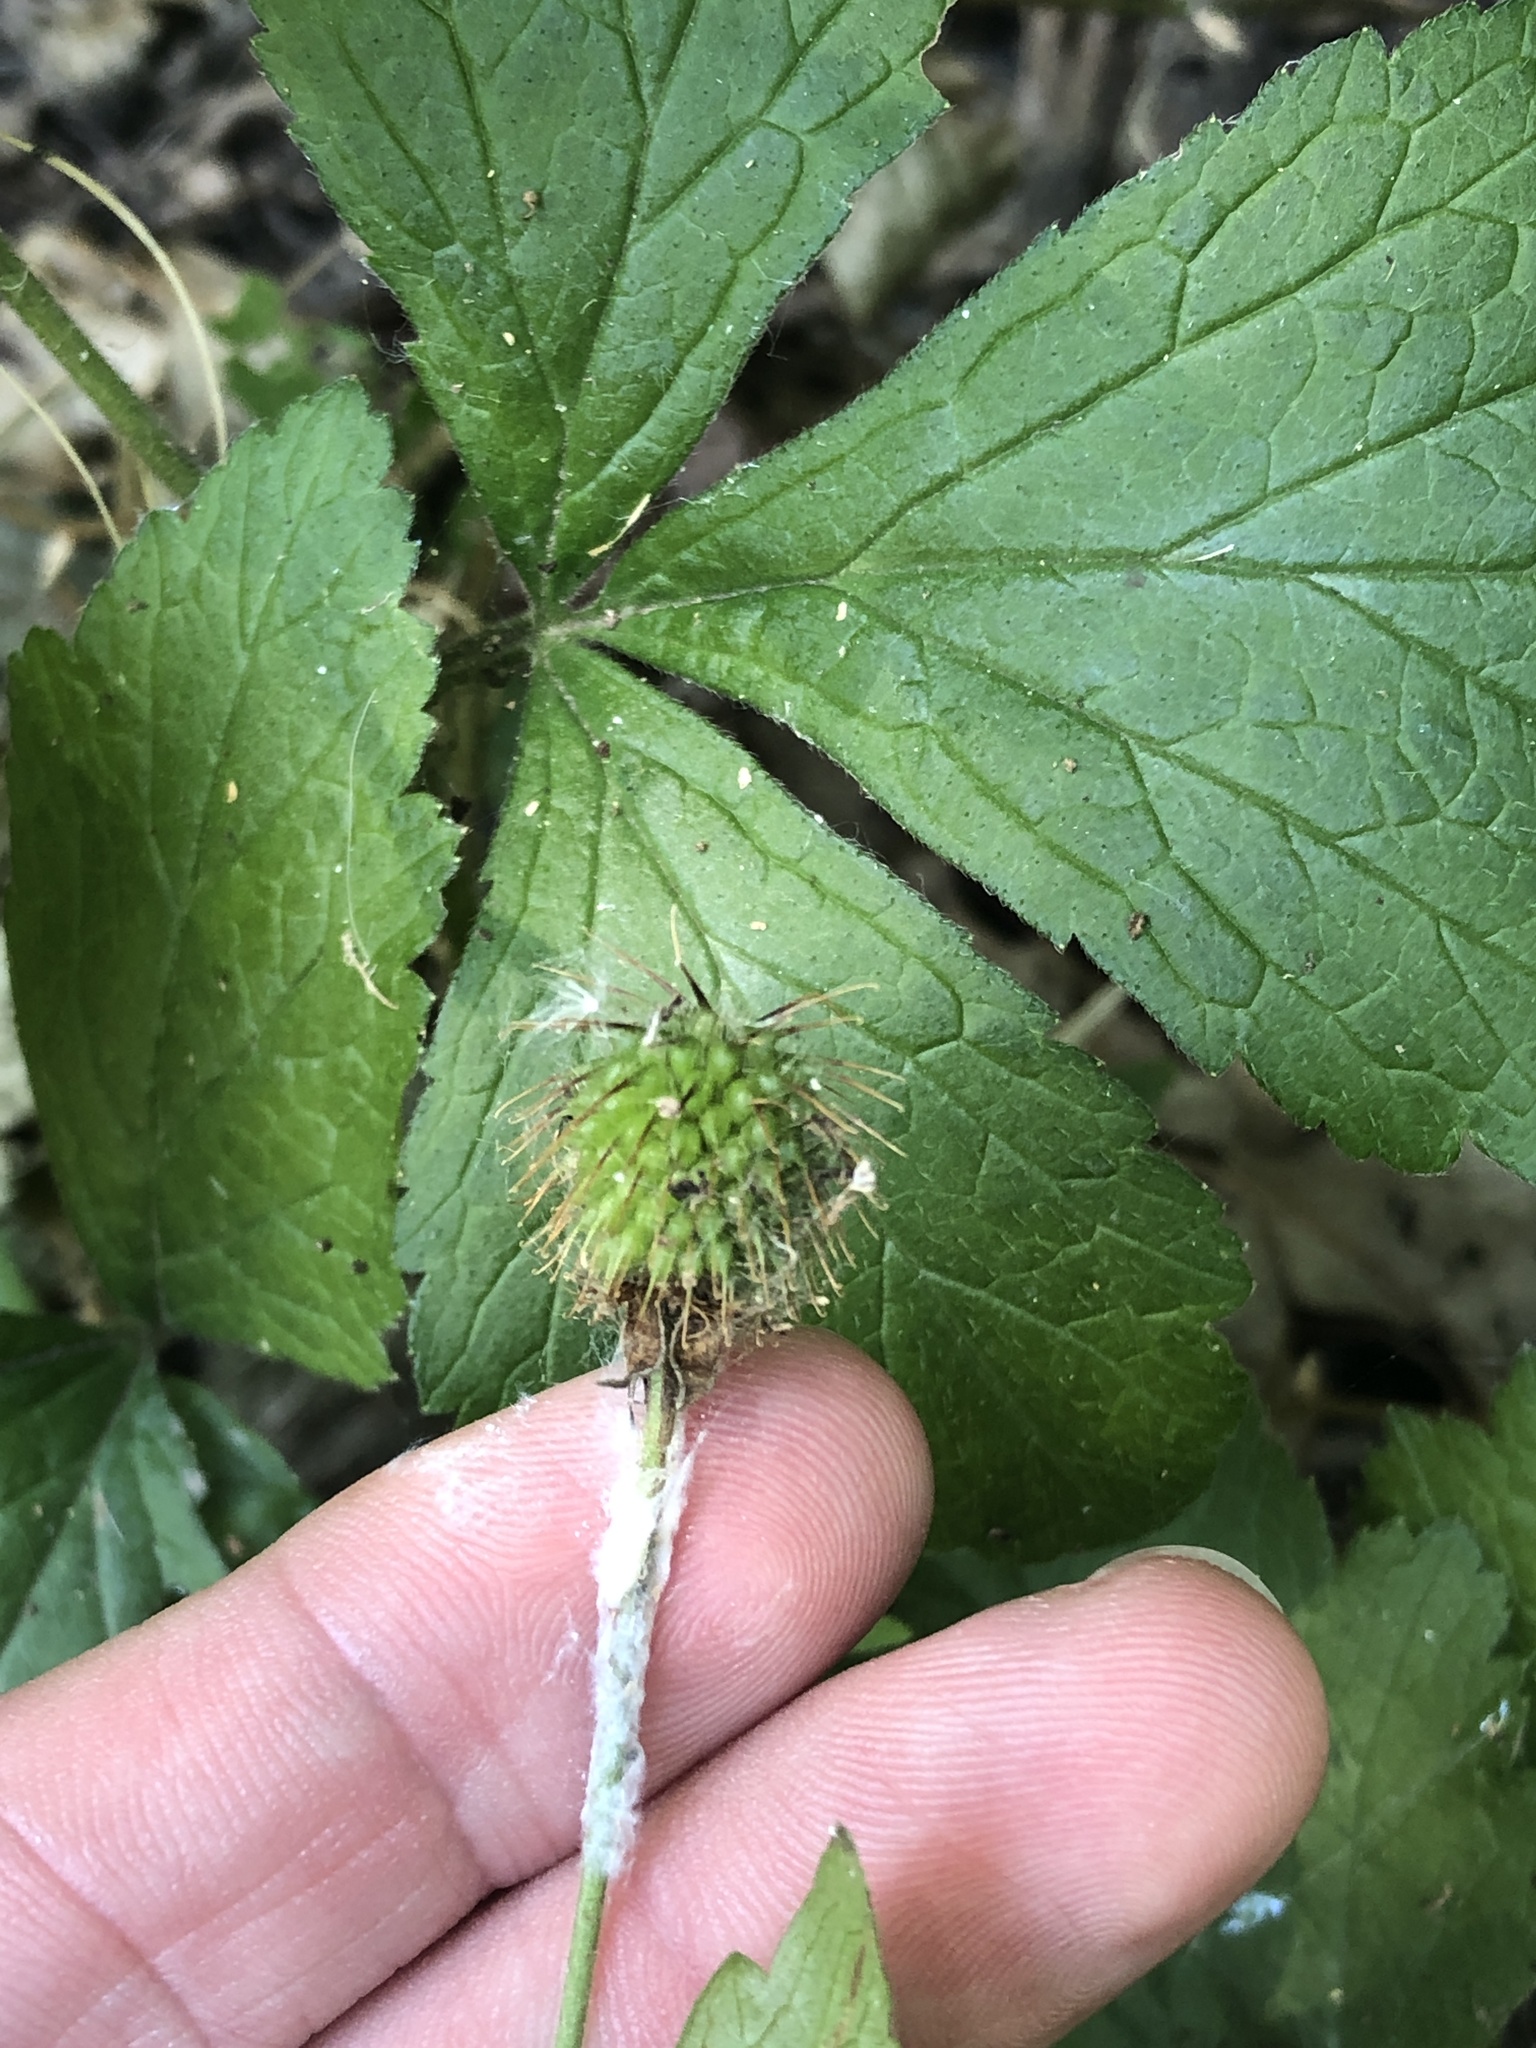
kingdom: Plantae
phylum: Tracheophyta
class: Magnoliopsida
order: Rosales
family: Rosaceae
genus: Geum
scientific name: Geum canadense
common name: White avens
